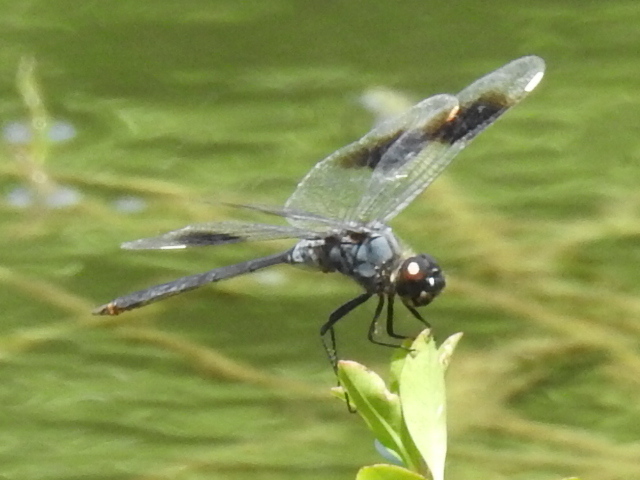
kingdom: Animalia
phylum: Arthropoda
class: Insecta
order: Odonata
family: Libellulidae
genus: Brachymesia
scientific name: Brachymesia gravida
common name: Four-spotted pennant
